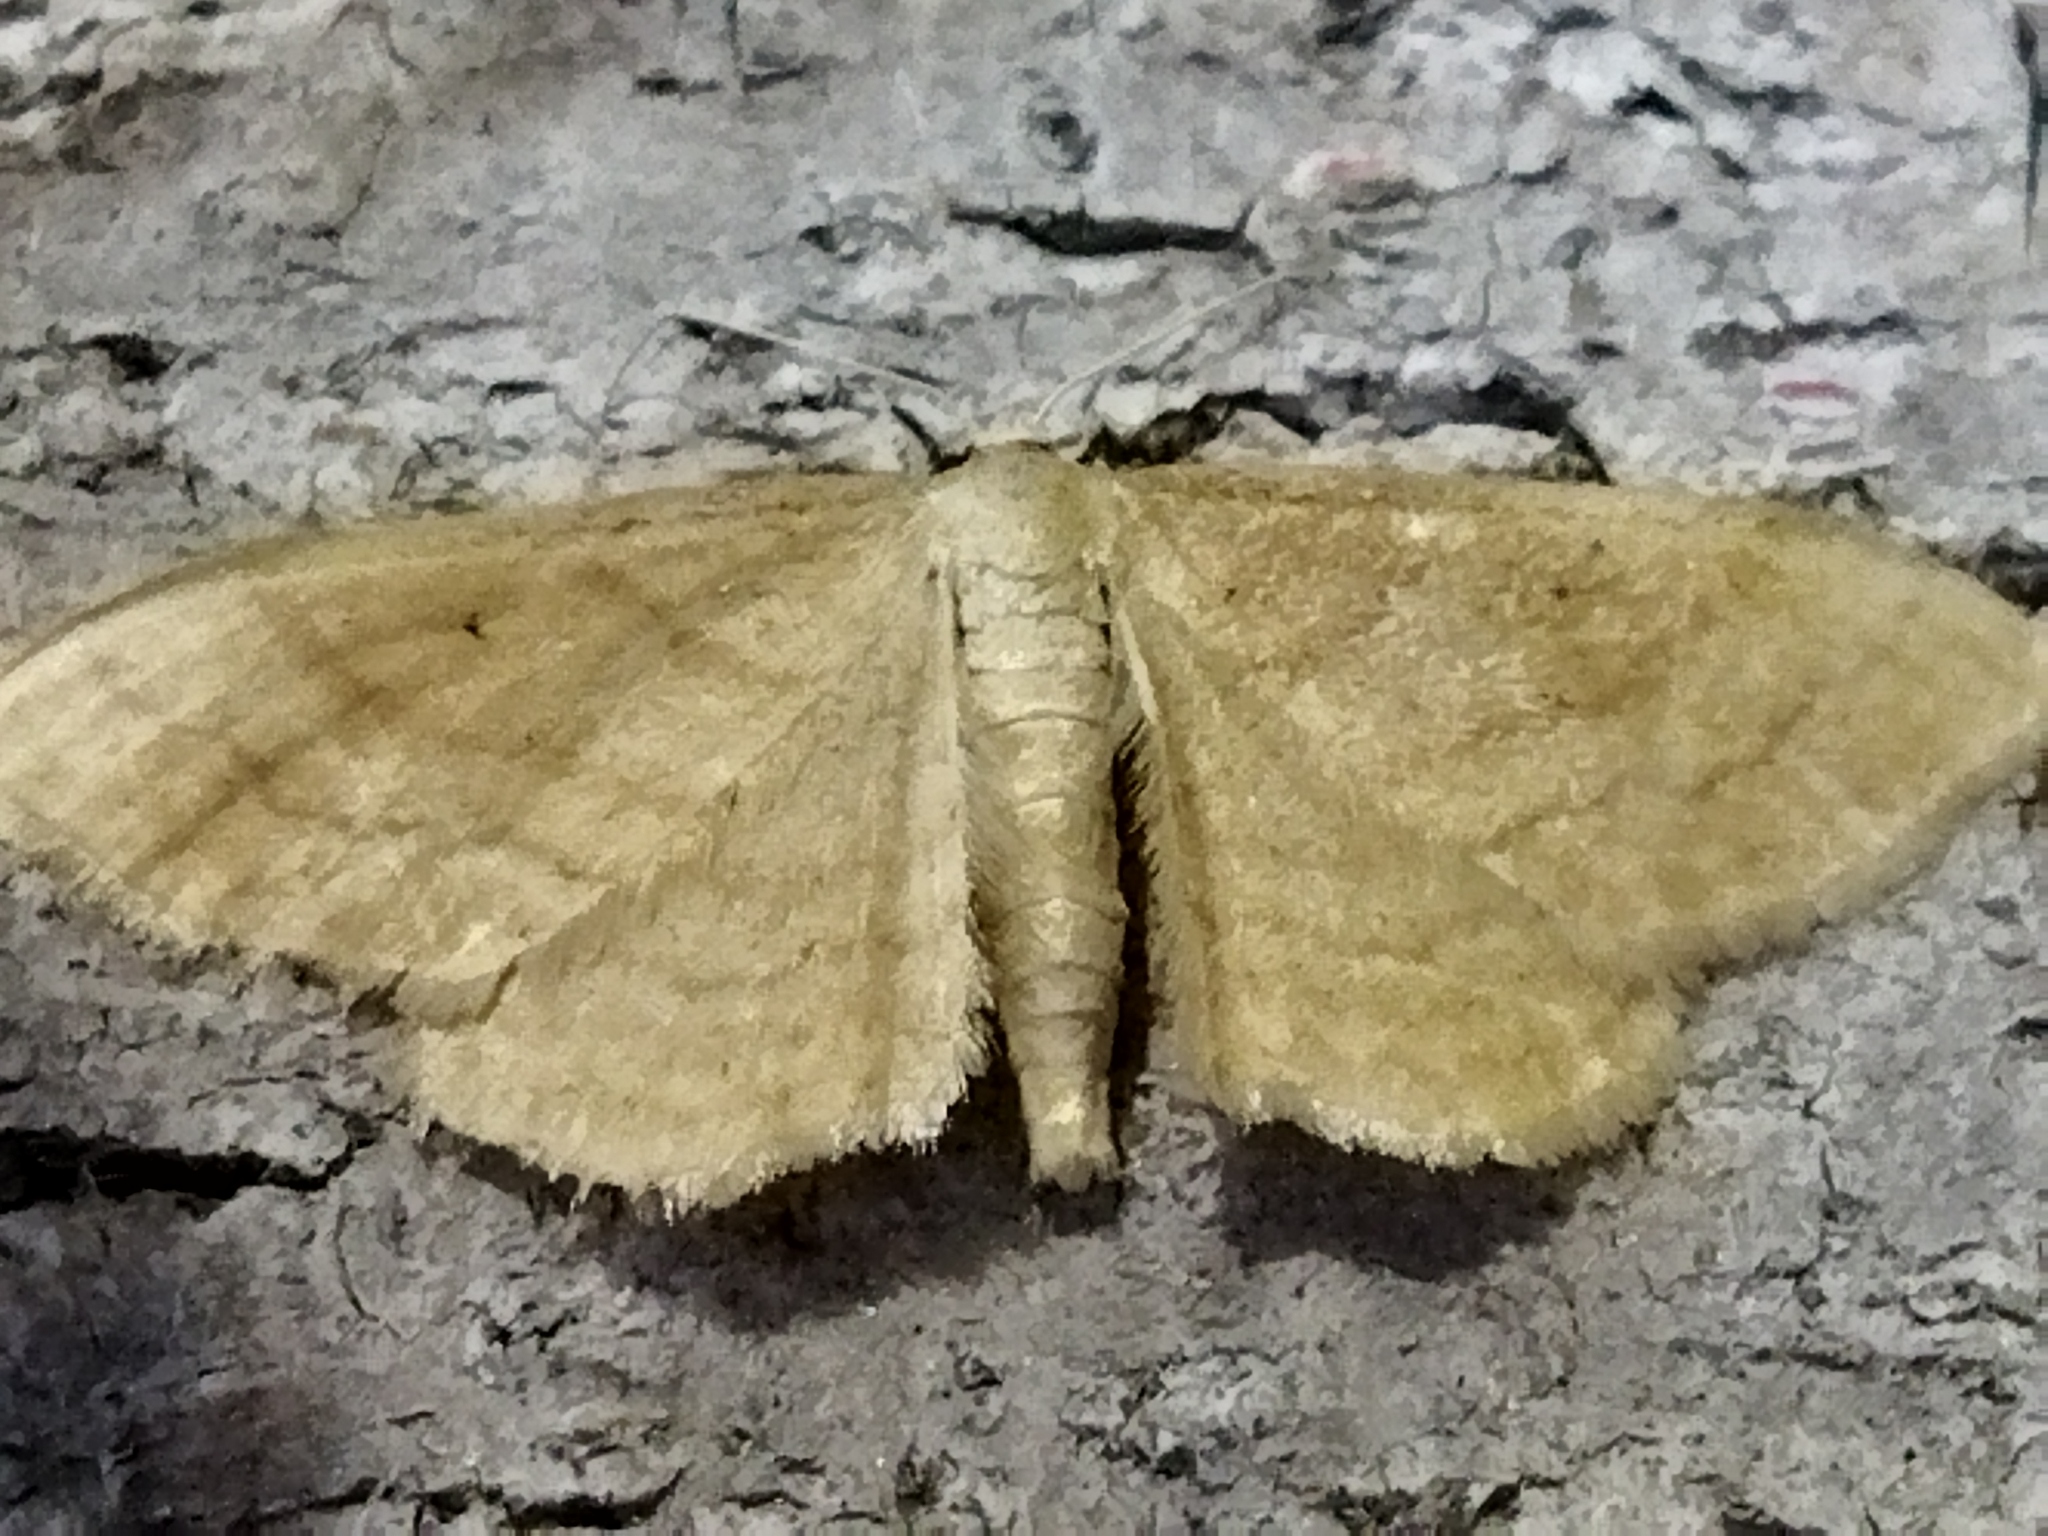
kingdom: Animalia
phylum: Arthropoda
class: Insecta
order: Lepidoptera
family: Geometridae
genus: Idaea
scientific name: Idaea rufaria
